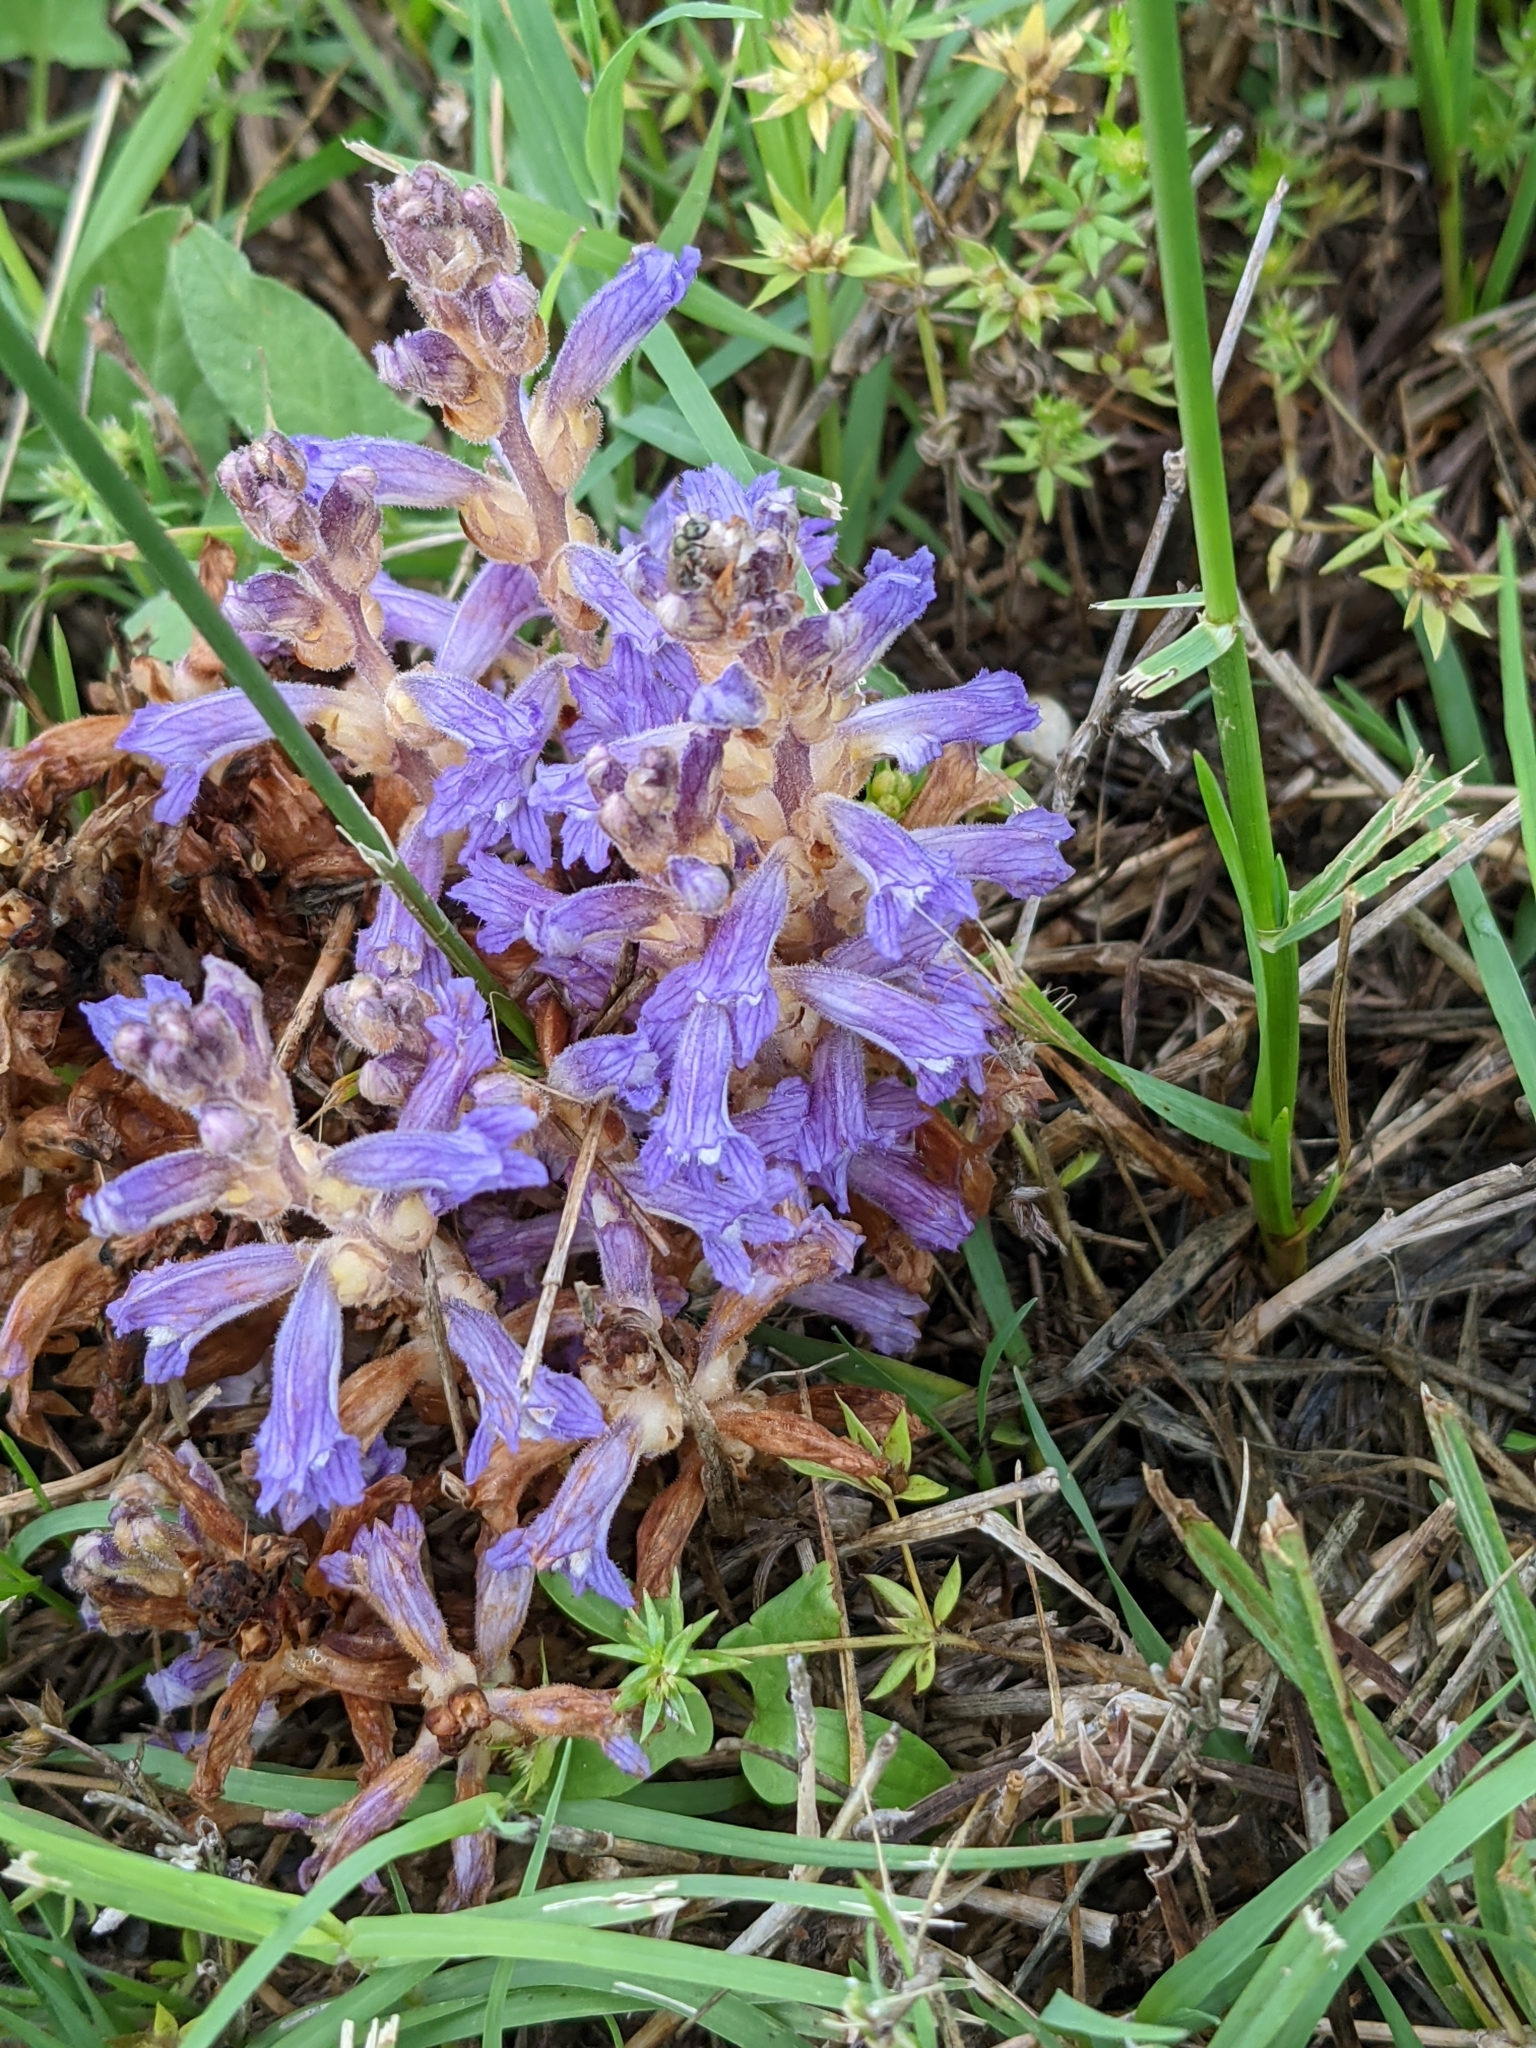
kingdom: Plantae
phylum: Tracheophyta
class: Magnoliopsida
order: Lamiales
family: Orobanchaceae
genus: Phelipanche
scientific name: Phelipanche mutelii
